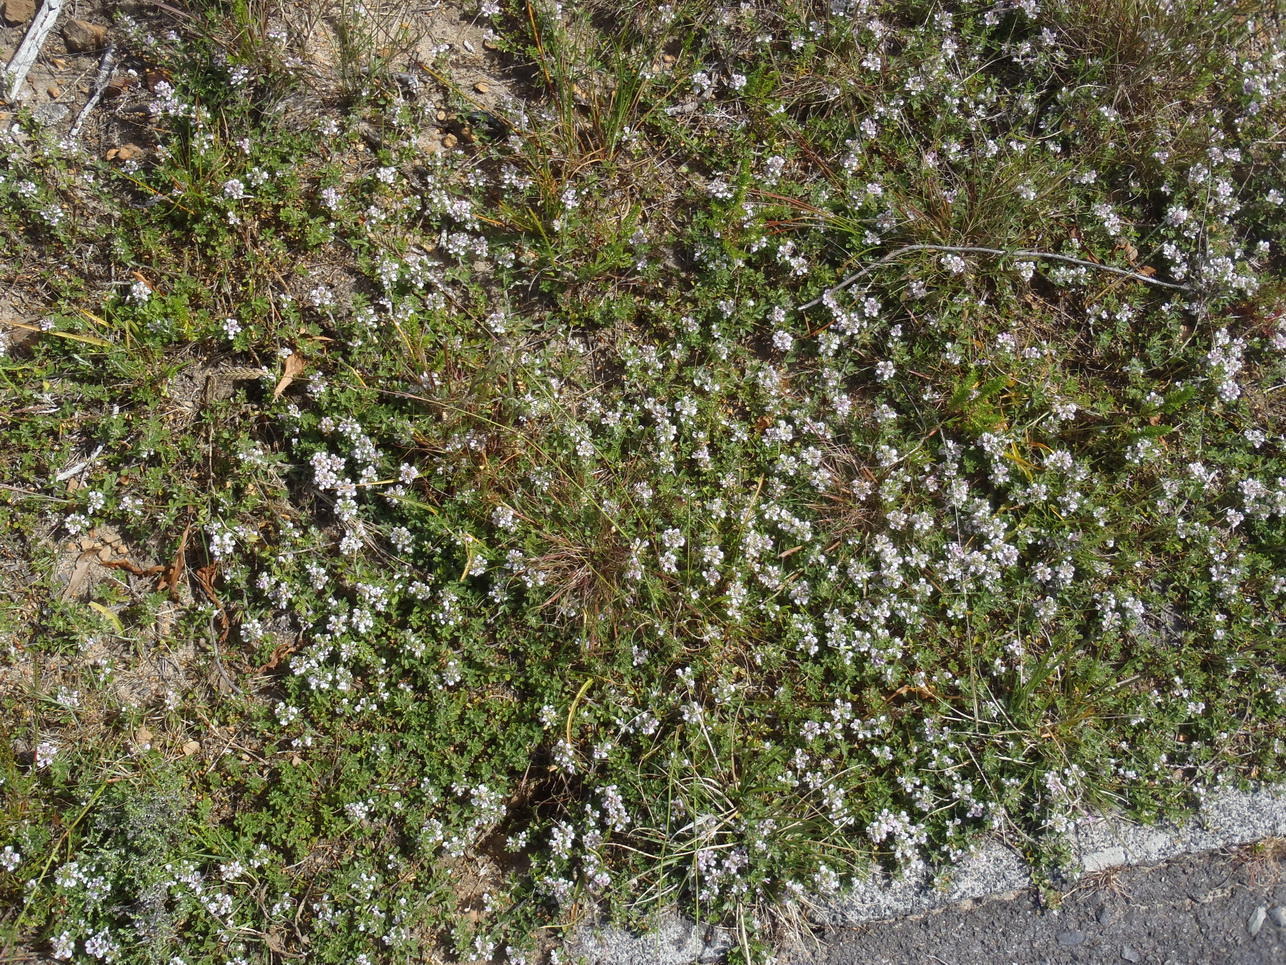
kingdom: Plantae
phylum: Tracheophyta
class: Magnoliopsida
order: Fabales
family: Fabaceae
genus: Psoralea
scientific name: Psoralea
